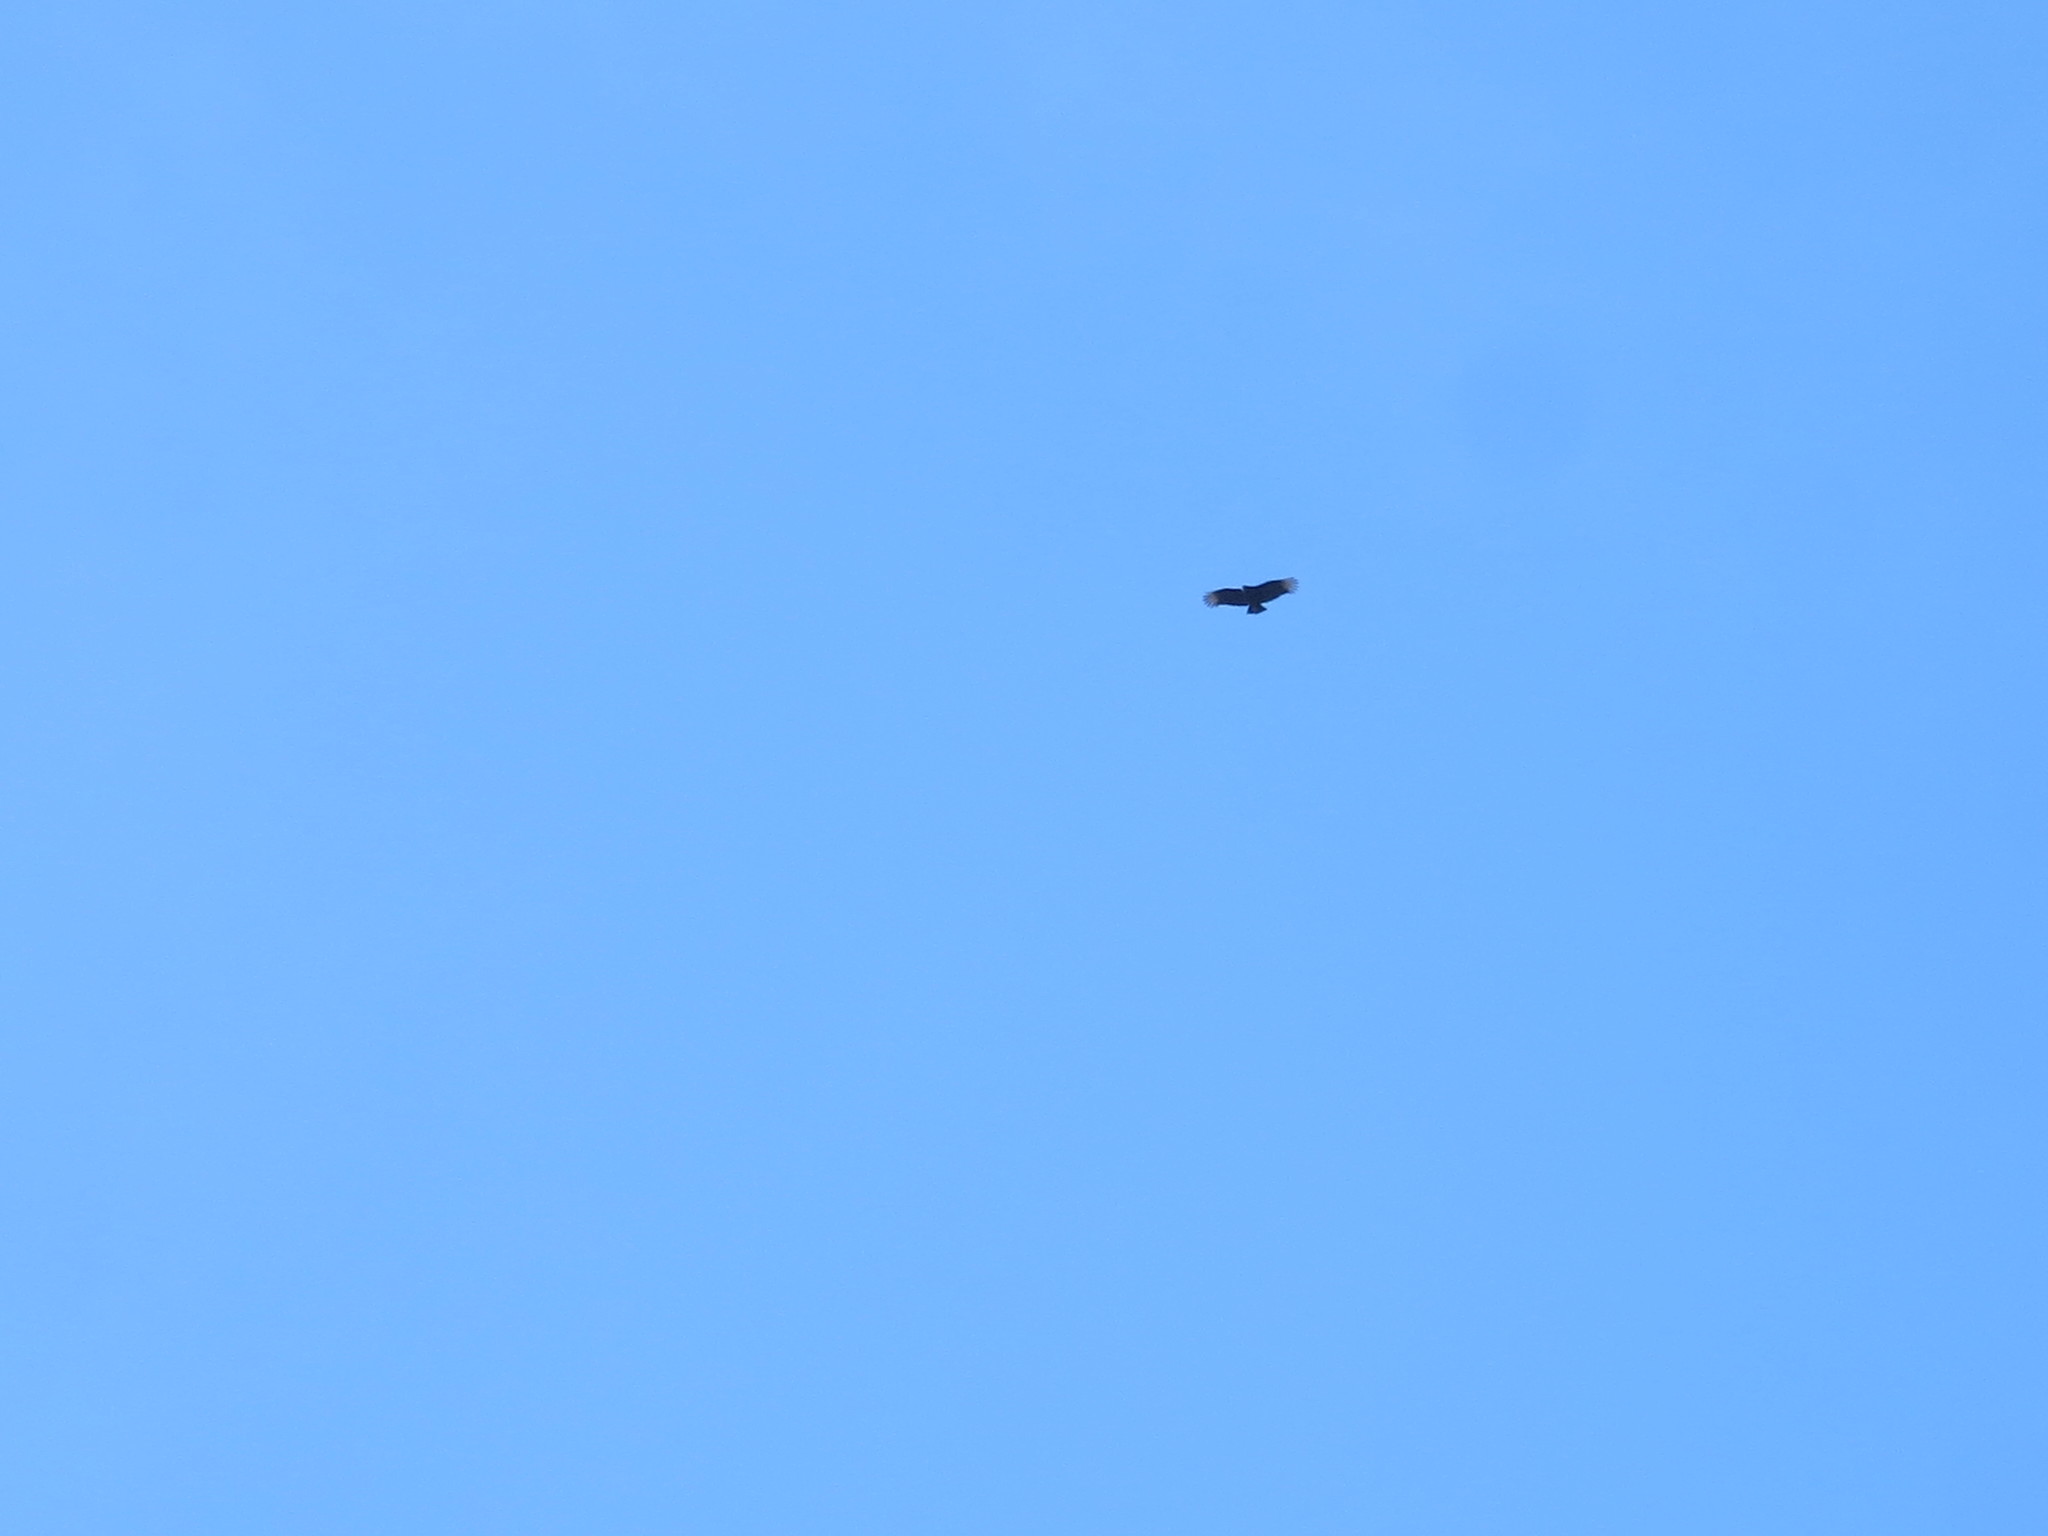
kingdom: Animalia
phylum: Chordata
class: Aves
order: Accipitriformes
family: Cathartidae
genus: Coragyps
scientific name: Coragyps atratus
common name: Black vulture
